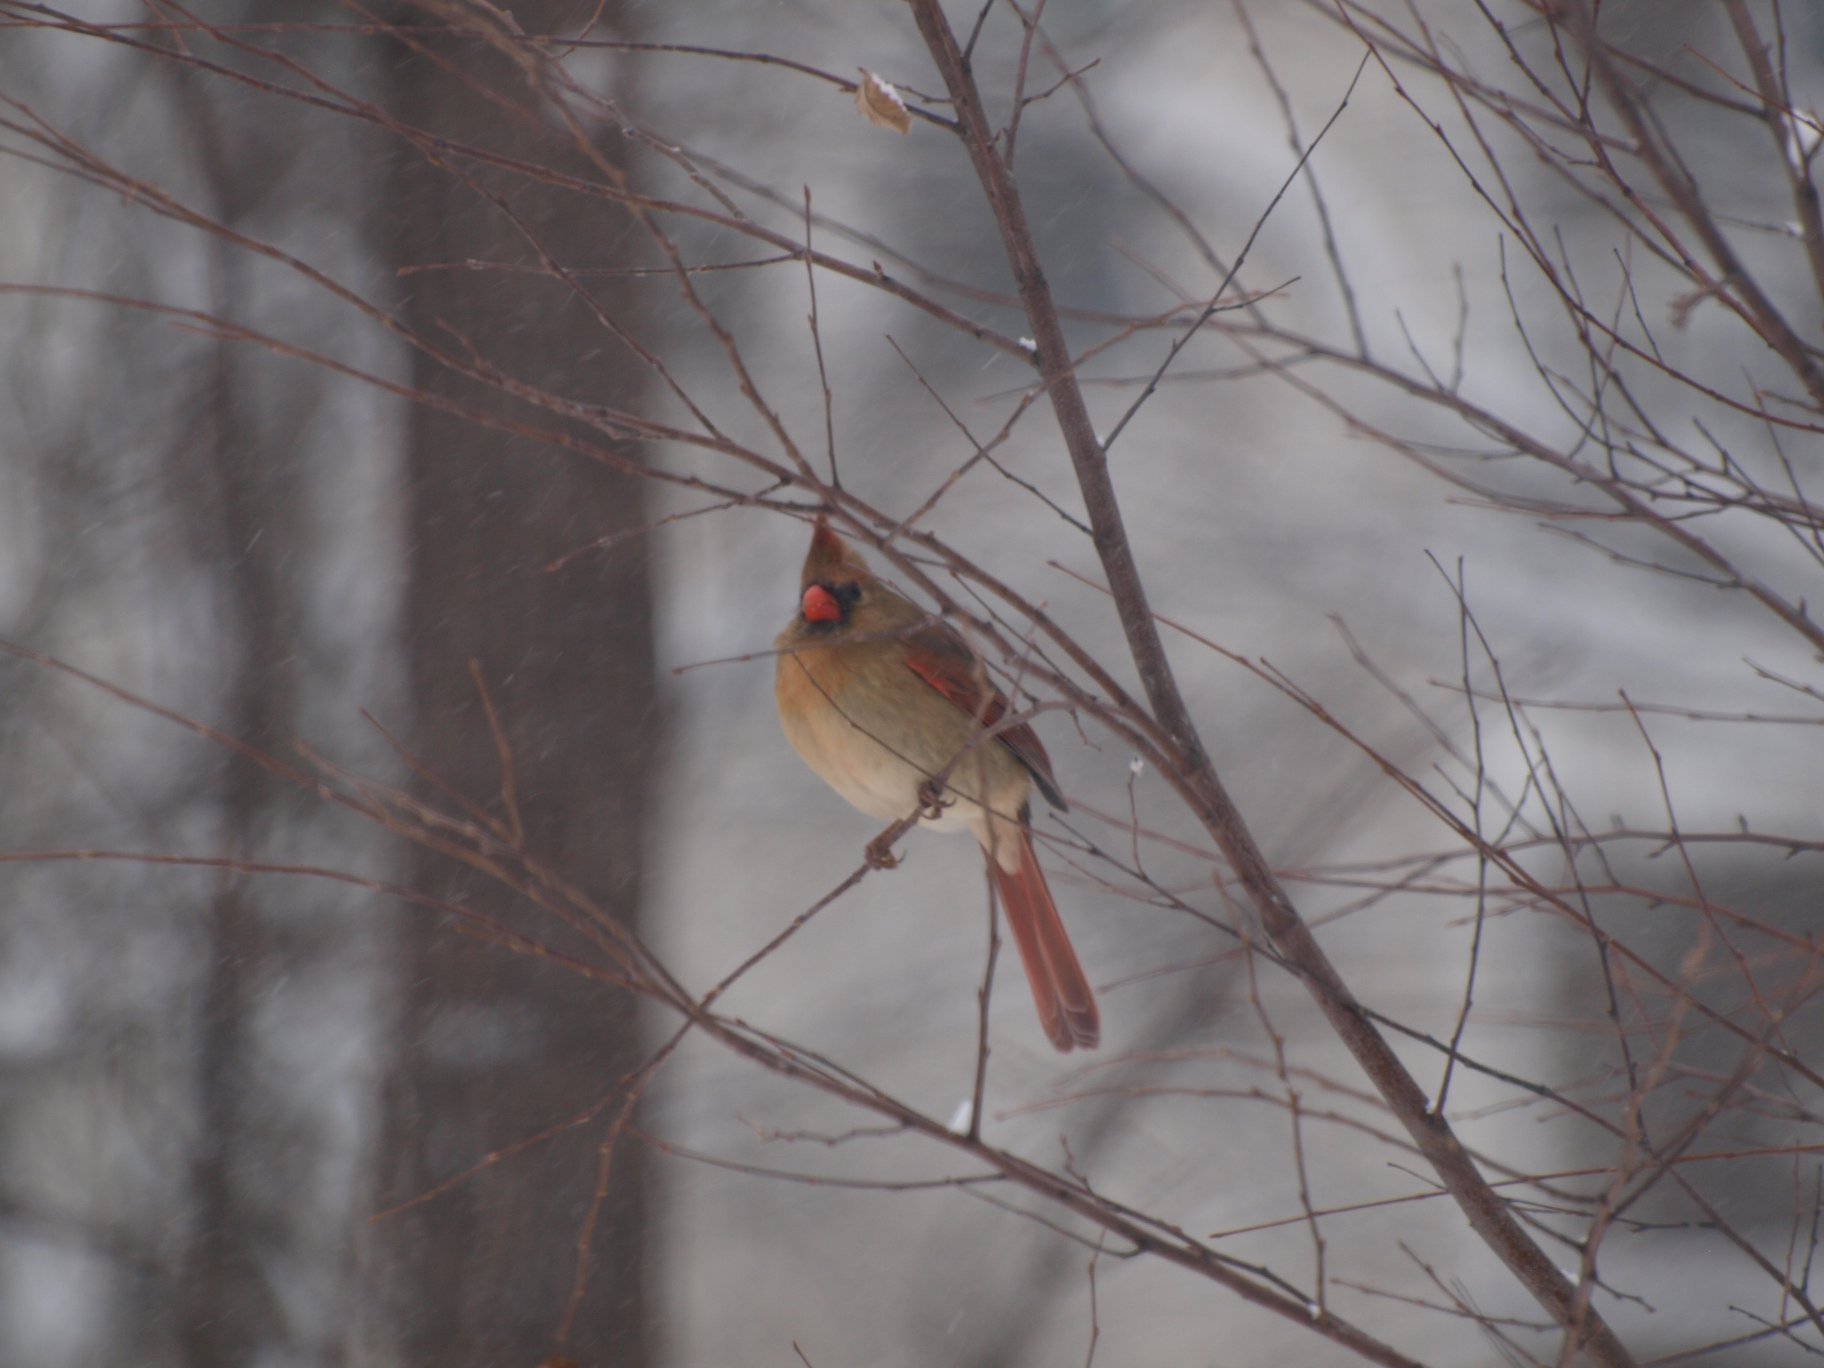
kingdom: Animalia
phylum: Chordata
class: Aves
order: Passeriformes
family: Cardinalidae
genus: Cardinalis
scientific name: Cardinalis cardinalis
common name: Northern cardinal
